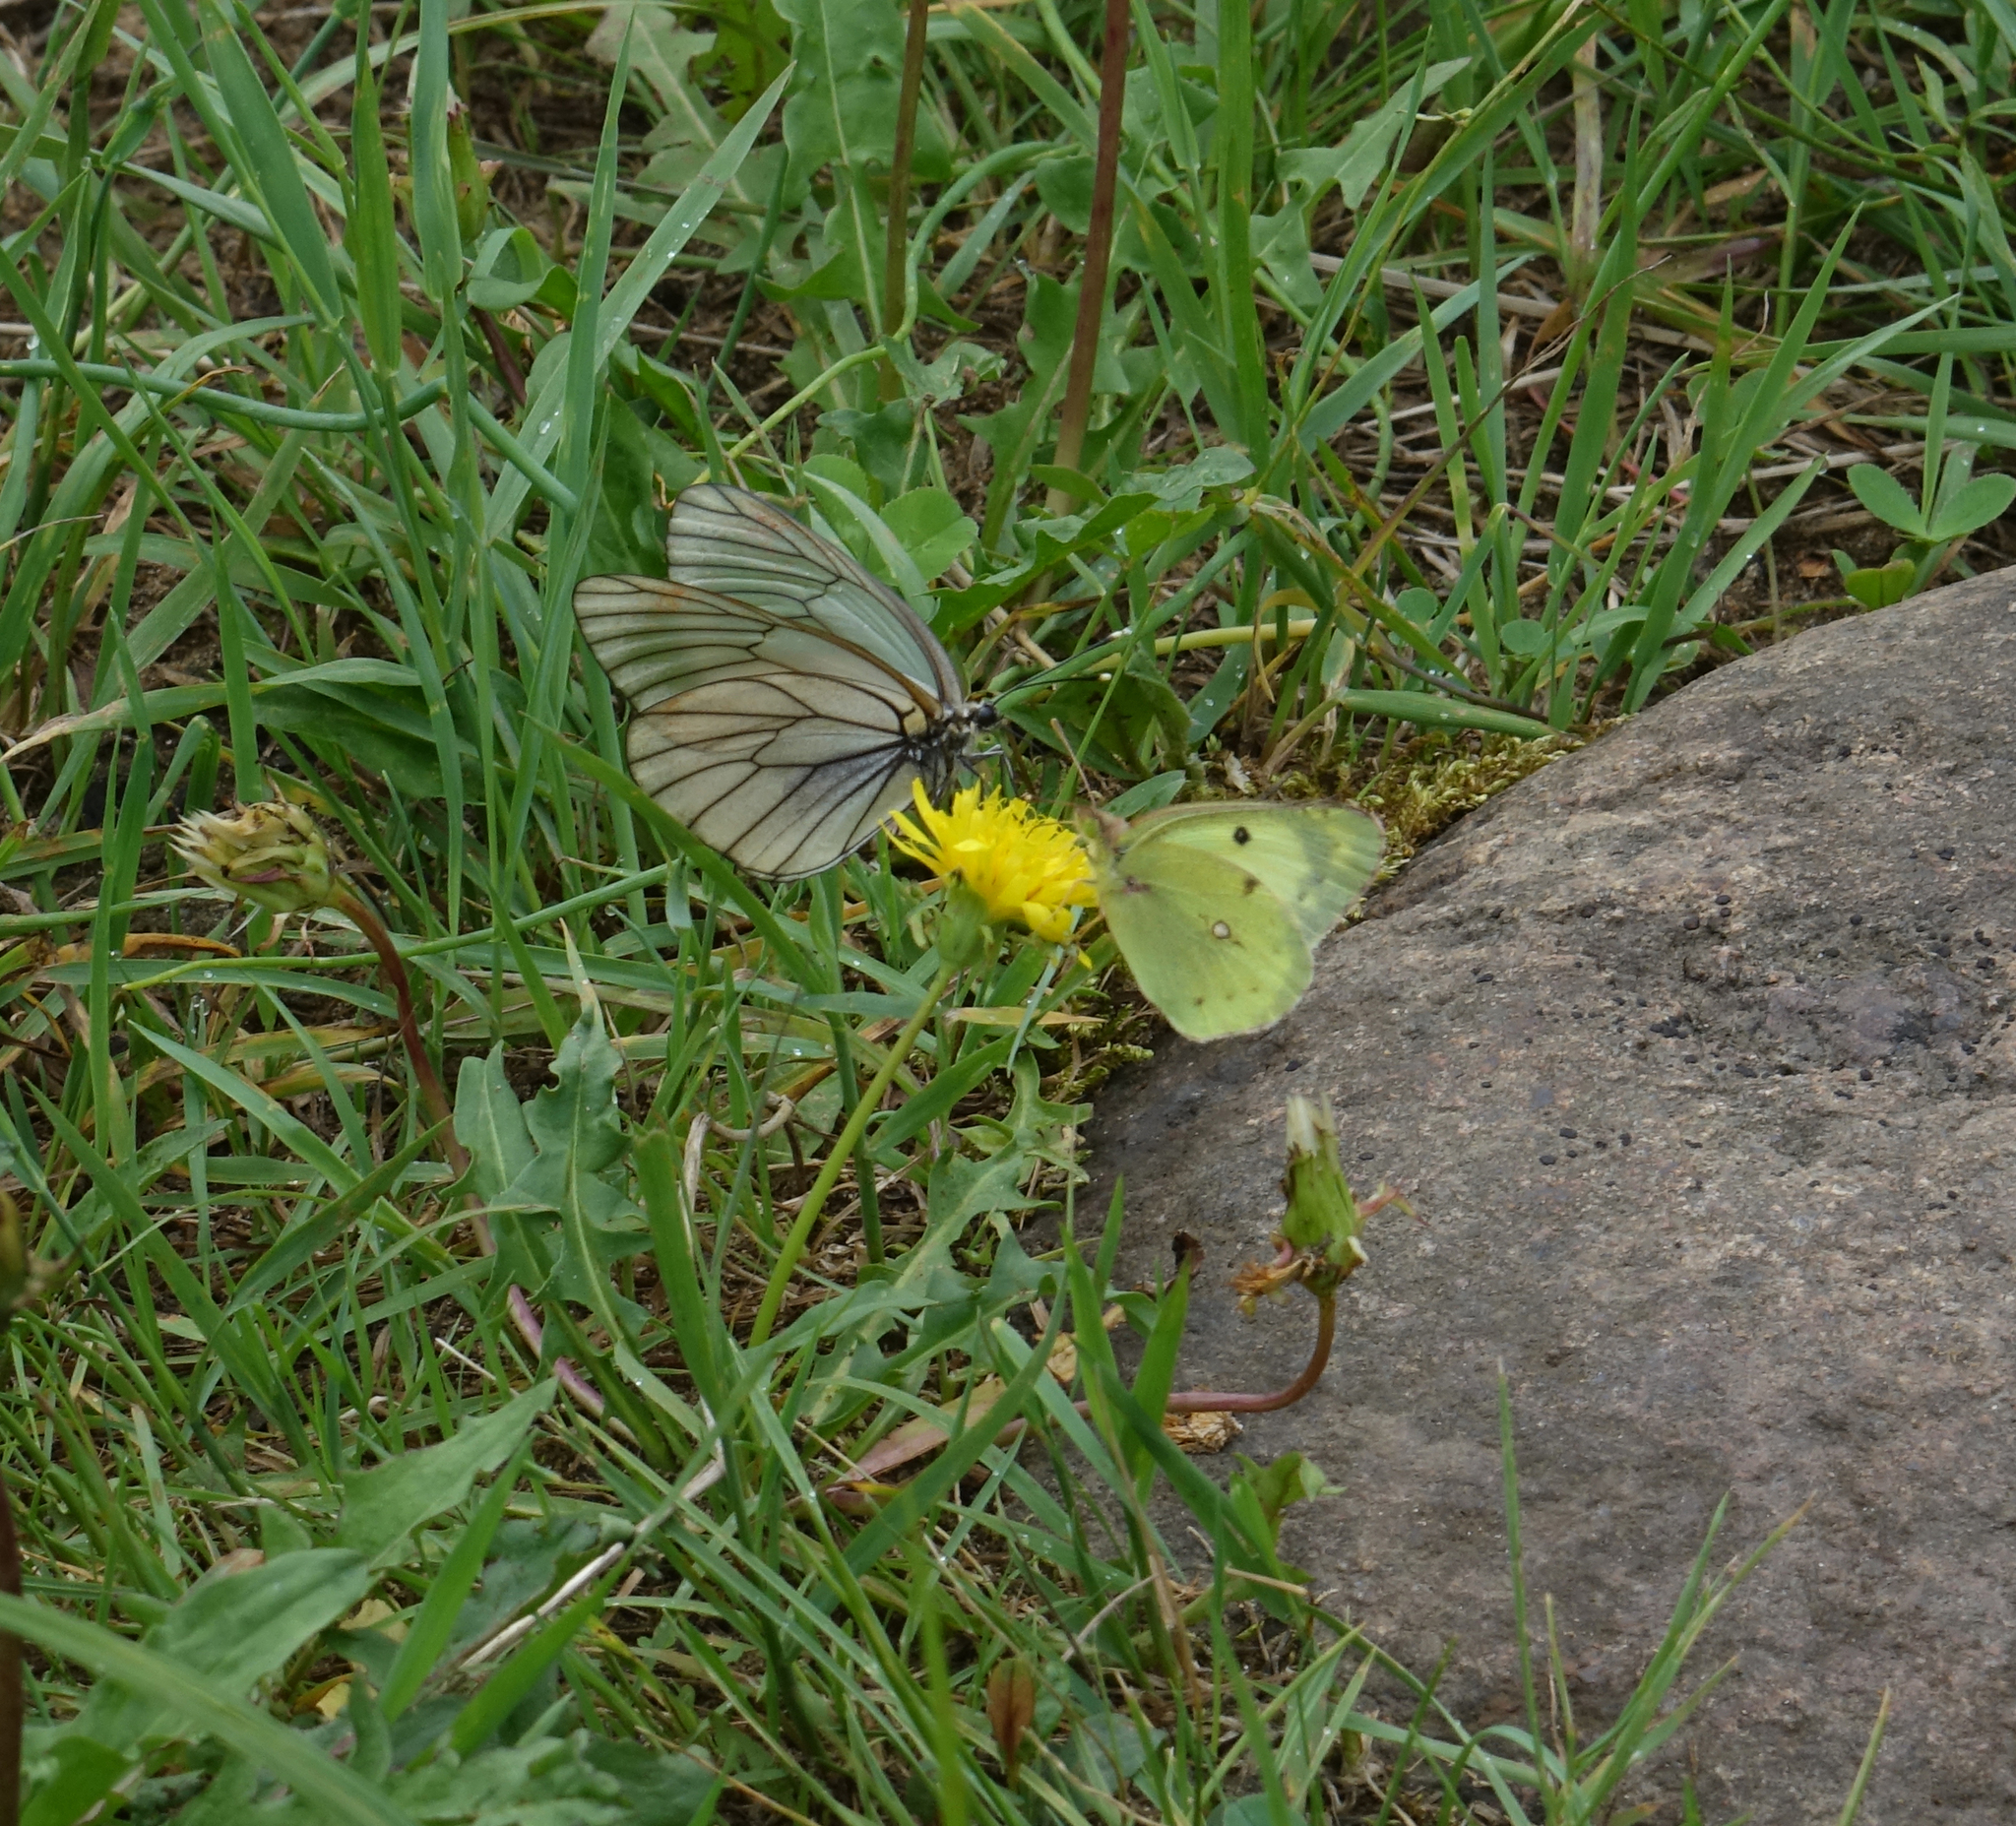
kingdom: Animalia
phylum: Arthropoda
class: Insecta
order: Lepidoptera
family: Pieridae
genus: Aporia
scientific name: Aporia crataegi
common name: Black-veined white
